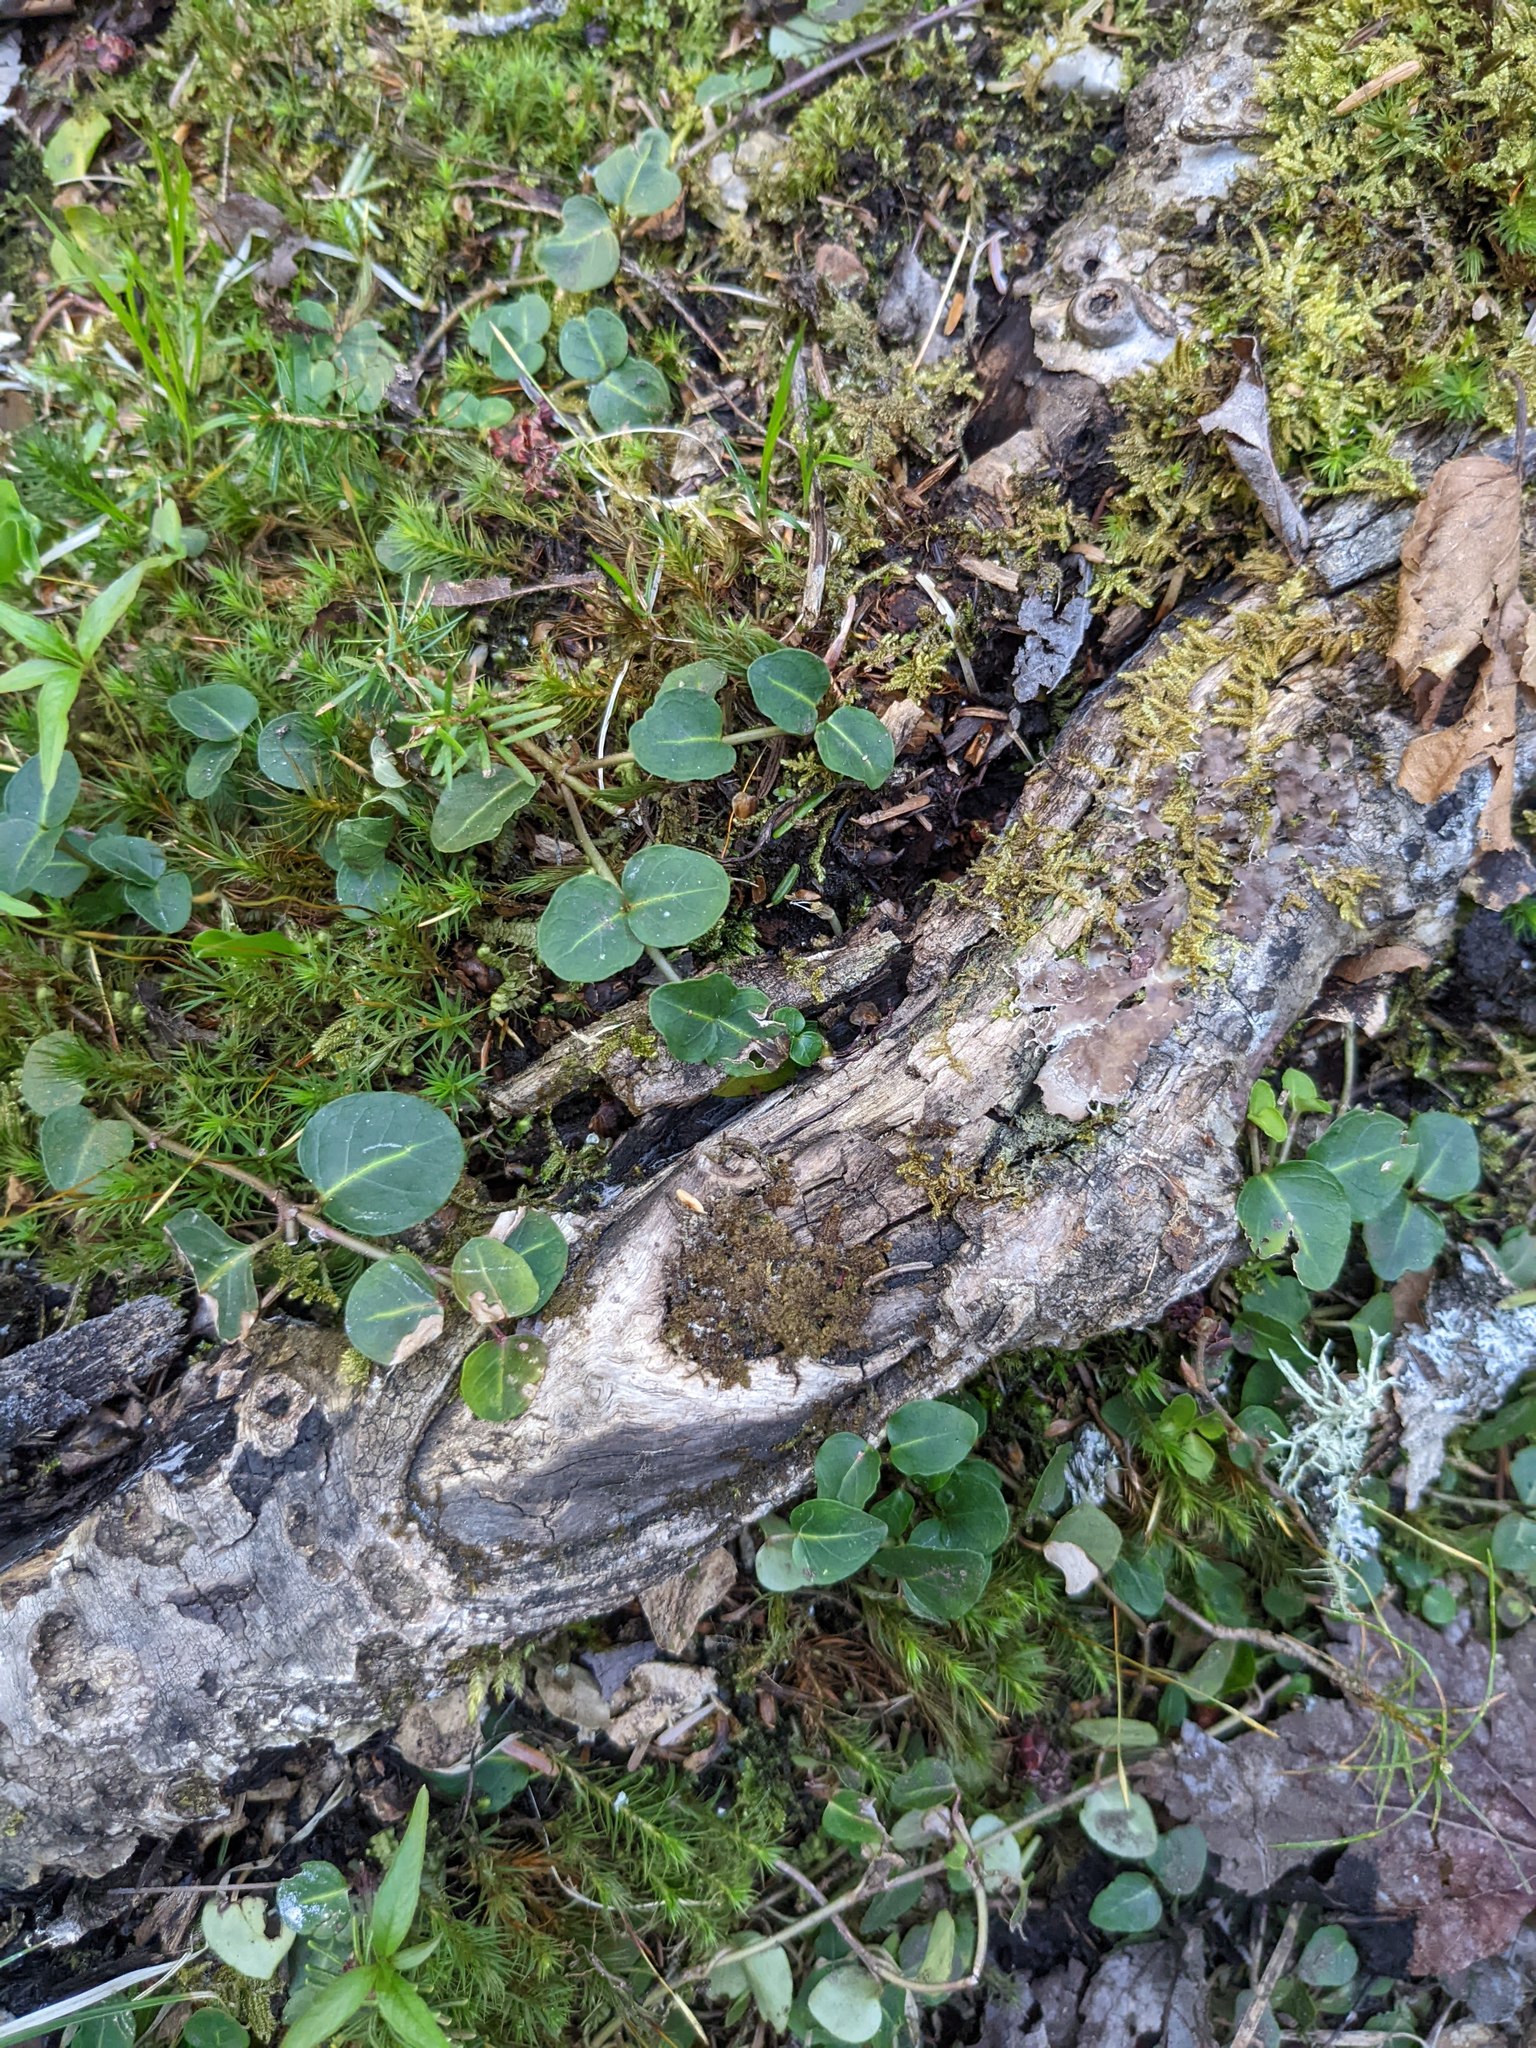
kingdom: Plantae
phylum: Tracheophyta
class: Magnoliopsida
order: Gentianales
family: Rubiaceae
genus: Mitchella
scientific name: Mitchella repens
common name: Partridge-berry
